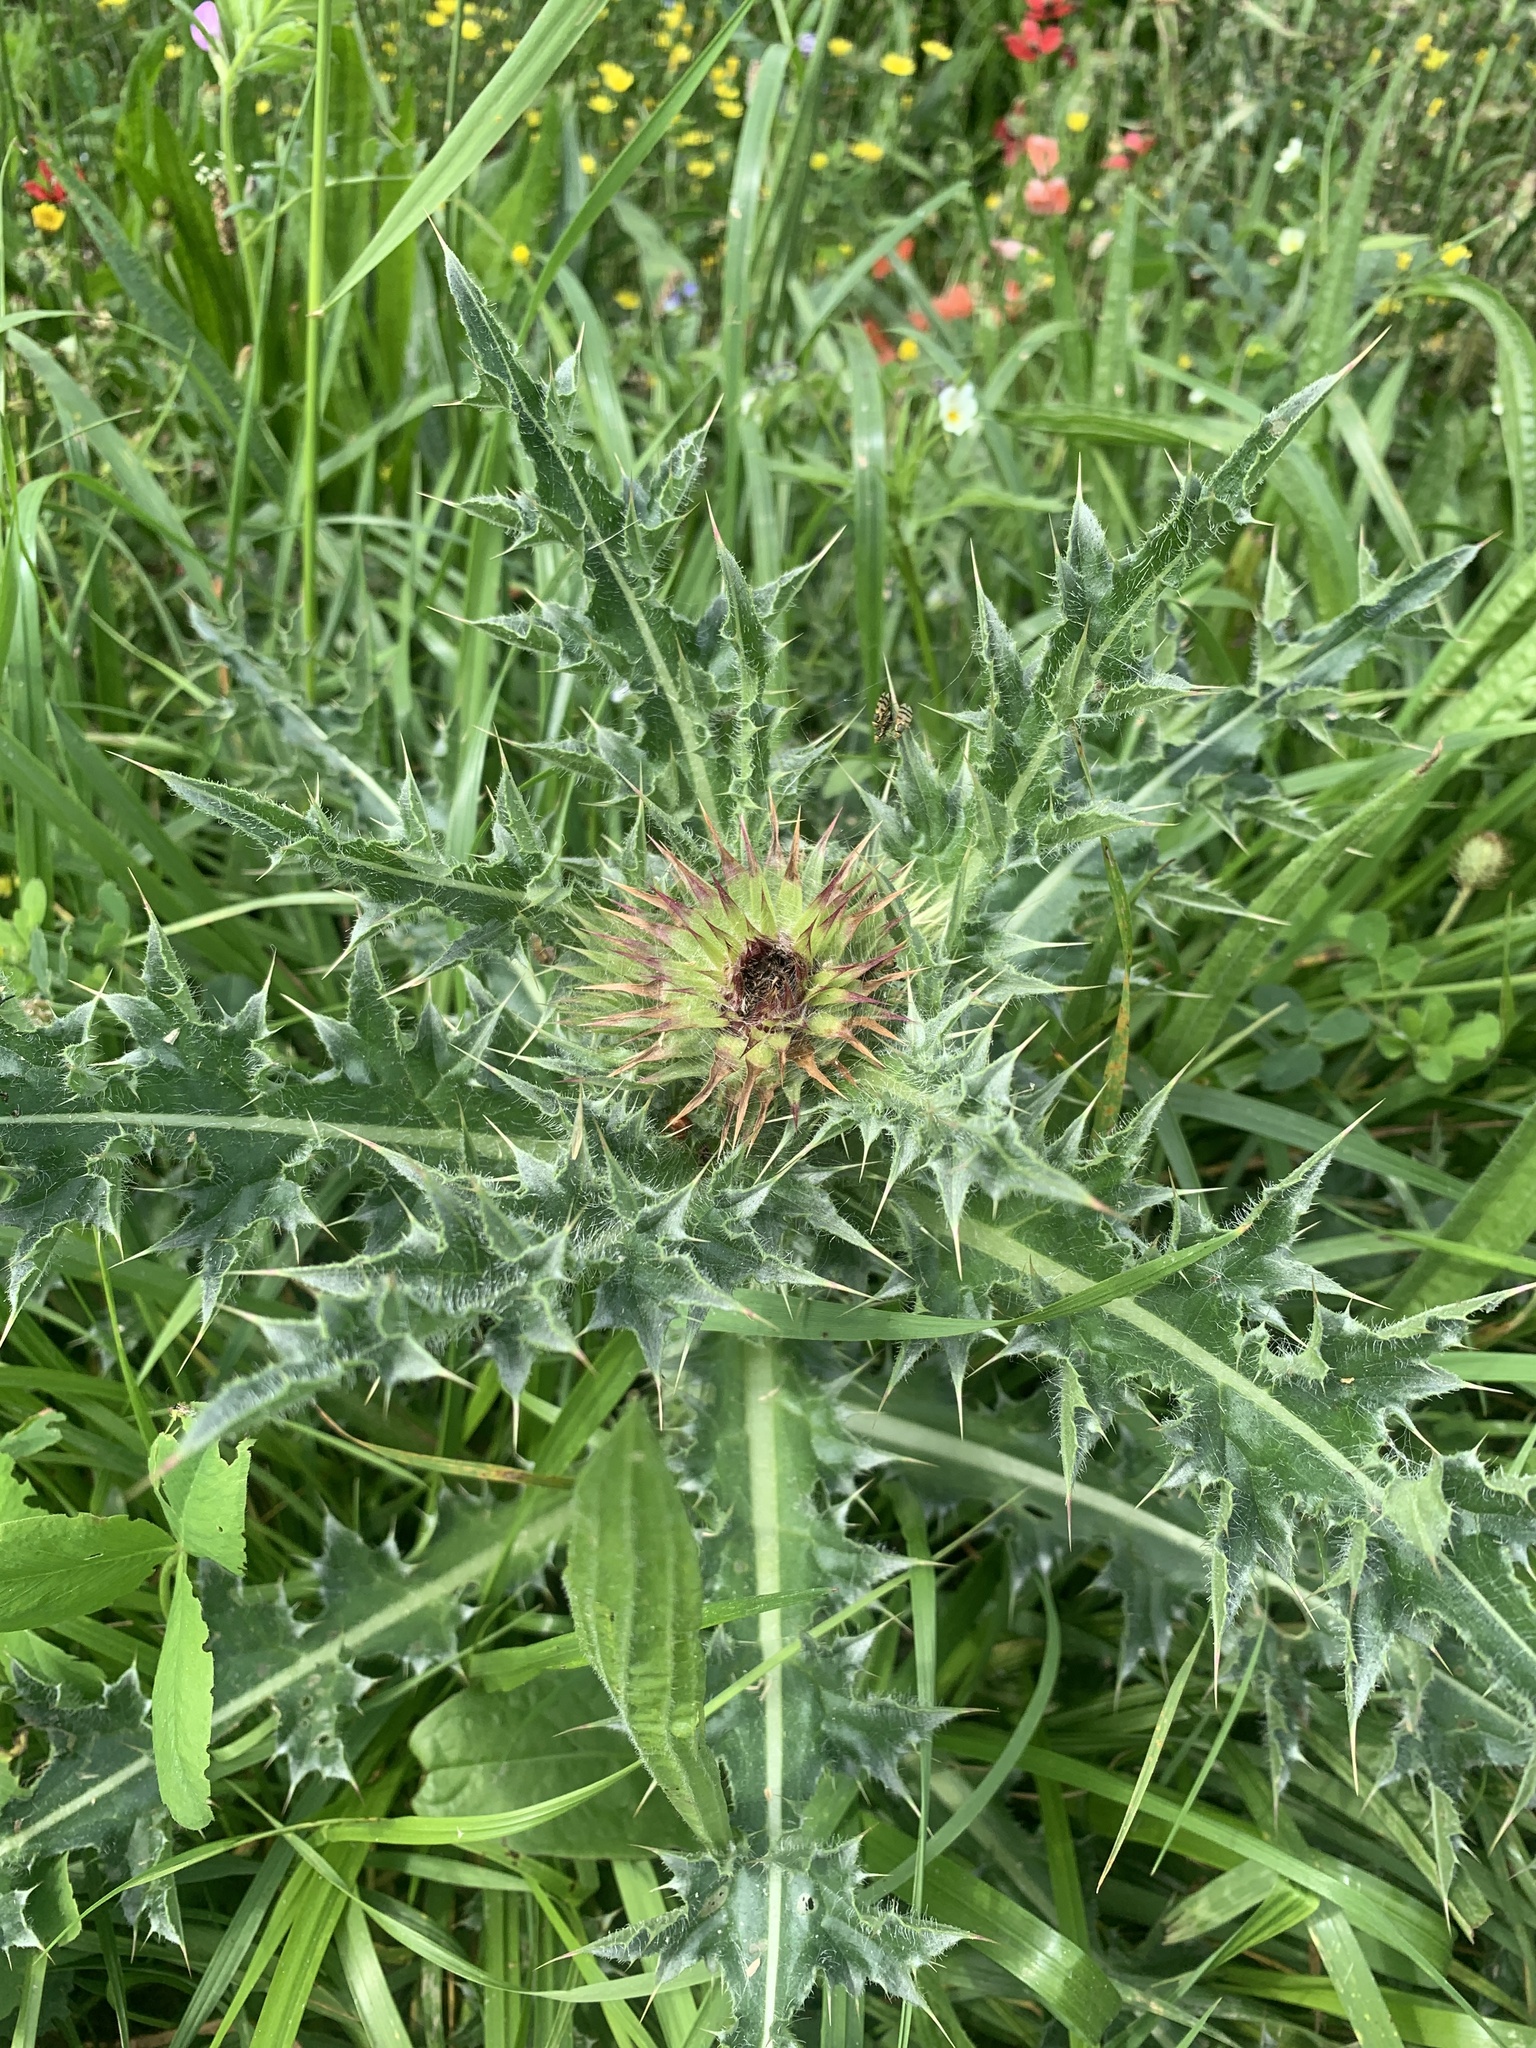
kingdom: Plantae
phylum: Tracheophyta
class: Magnoliopsida
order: Asterales
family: Asteraceae
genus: Cirsium
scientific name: Cirsium vulgare
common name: Bull thistle
